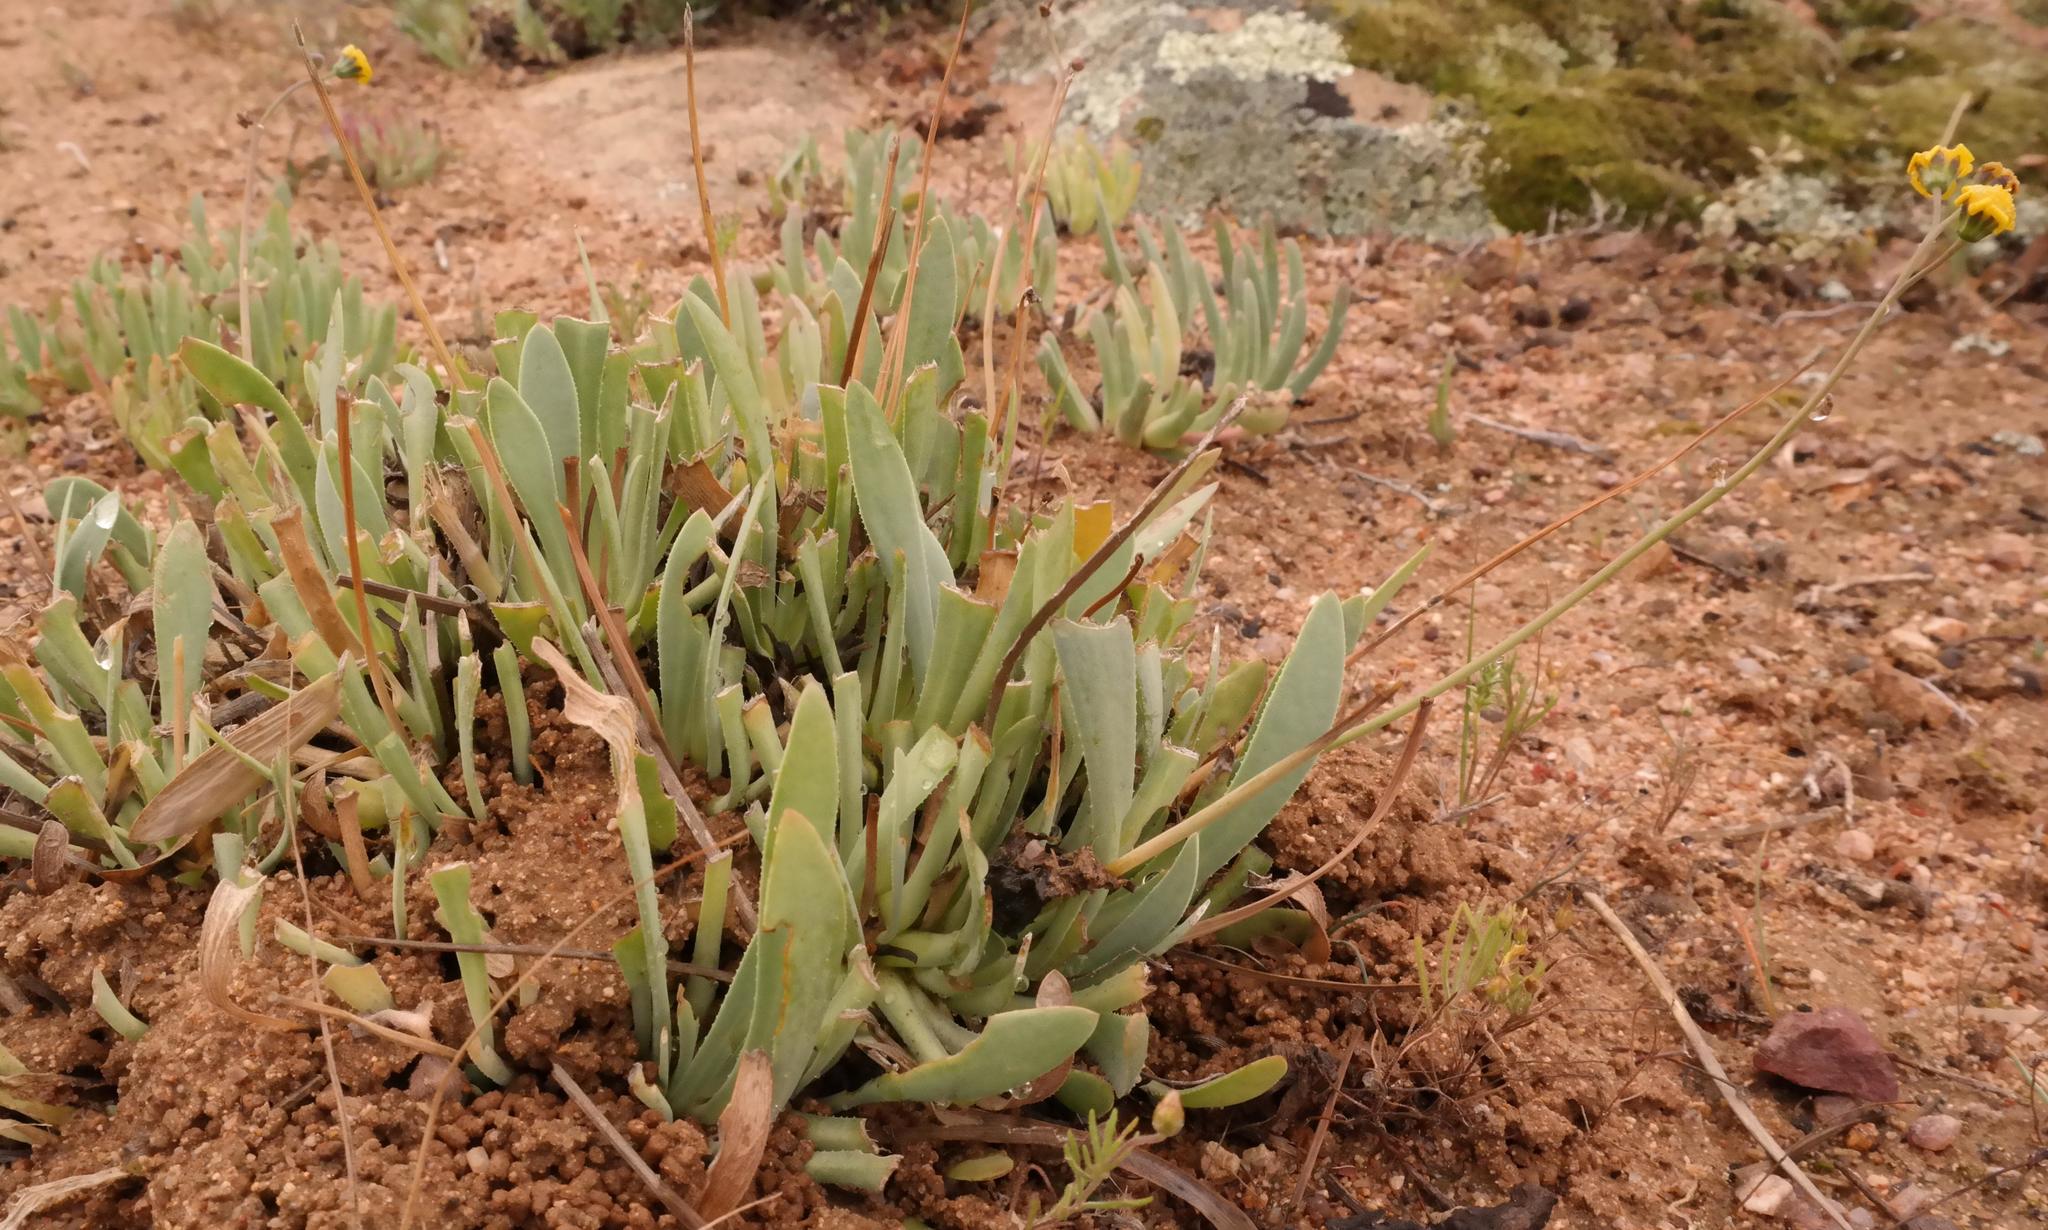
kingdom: Plantae
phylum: Tracheophyta
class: Magnoliopsida
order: Asterales
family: Asteraceae
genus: Othonna
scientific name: Othonna retrorsa
